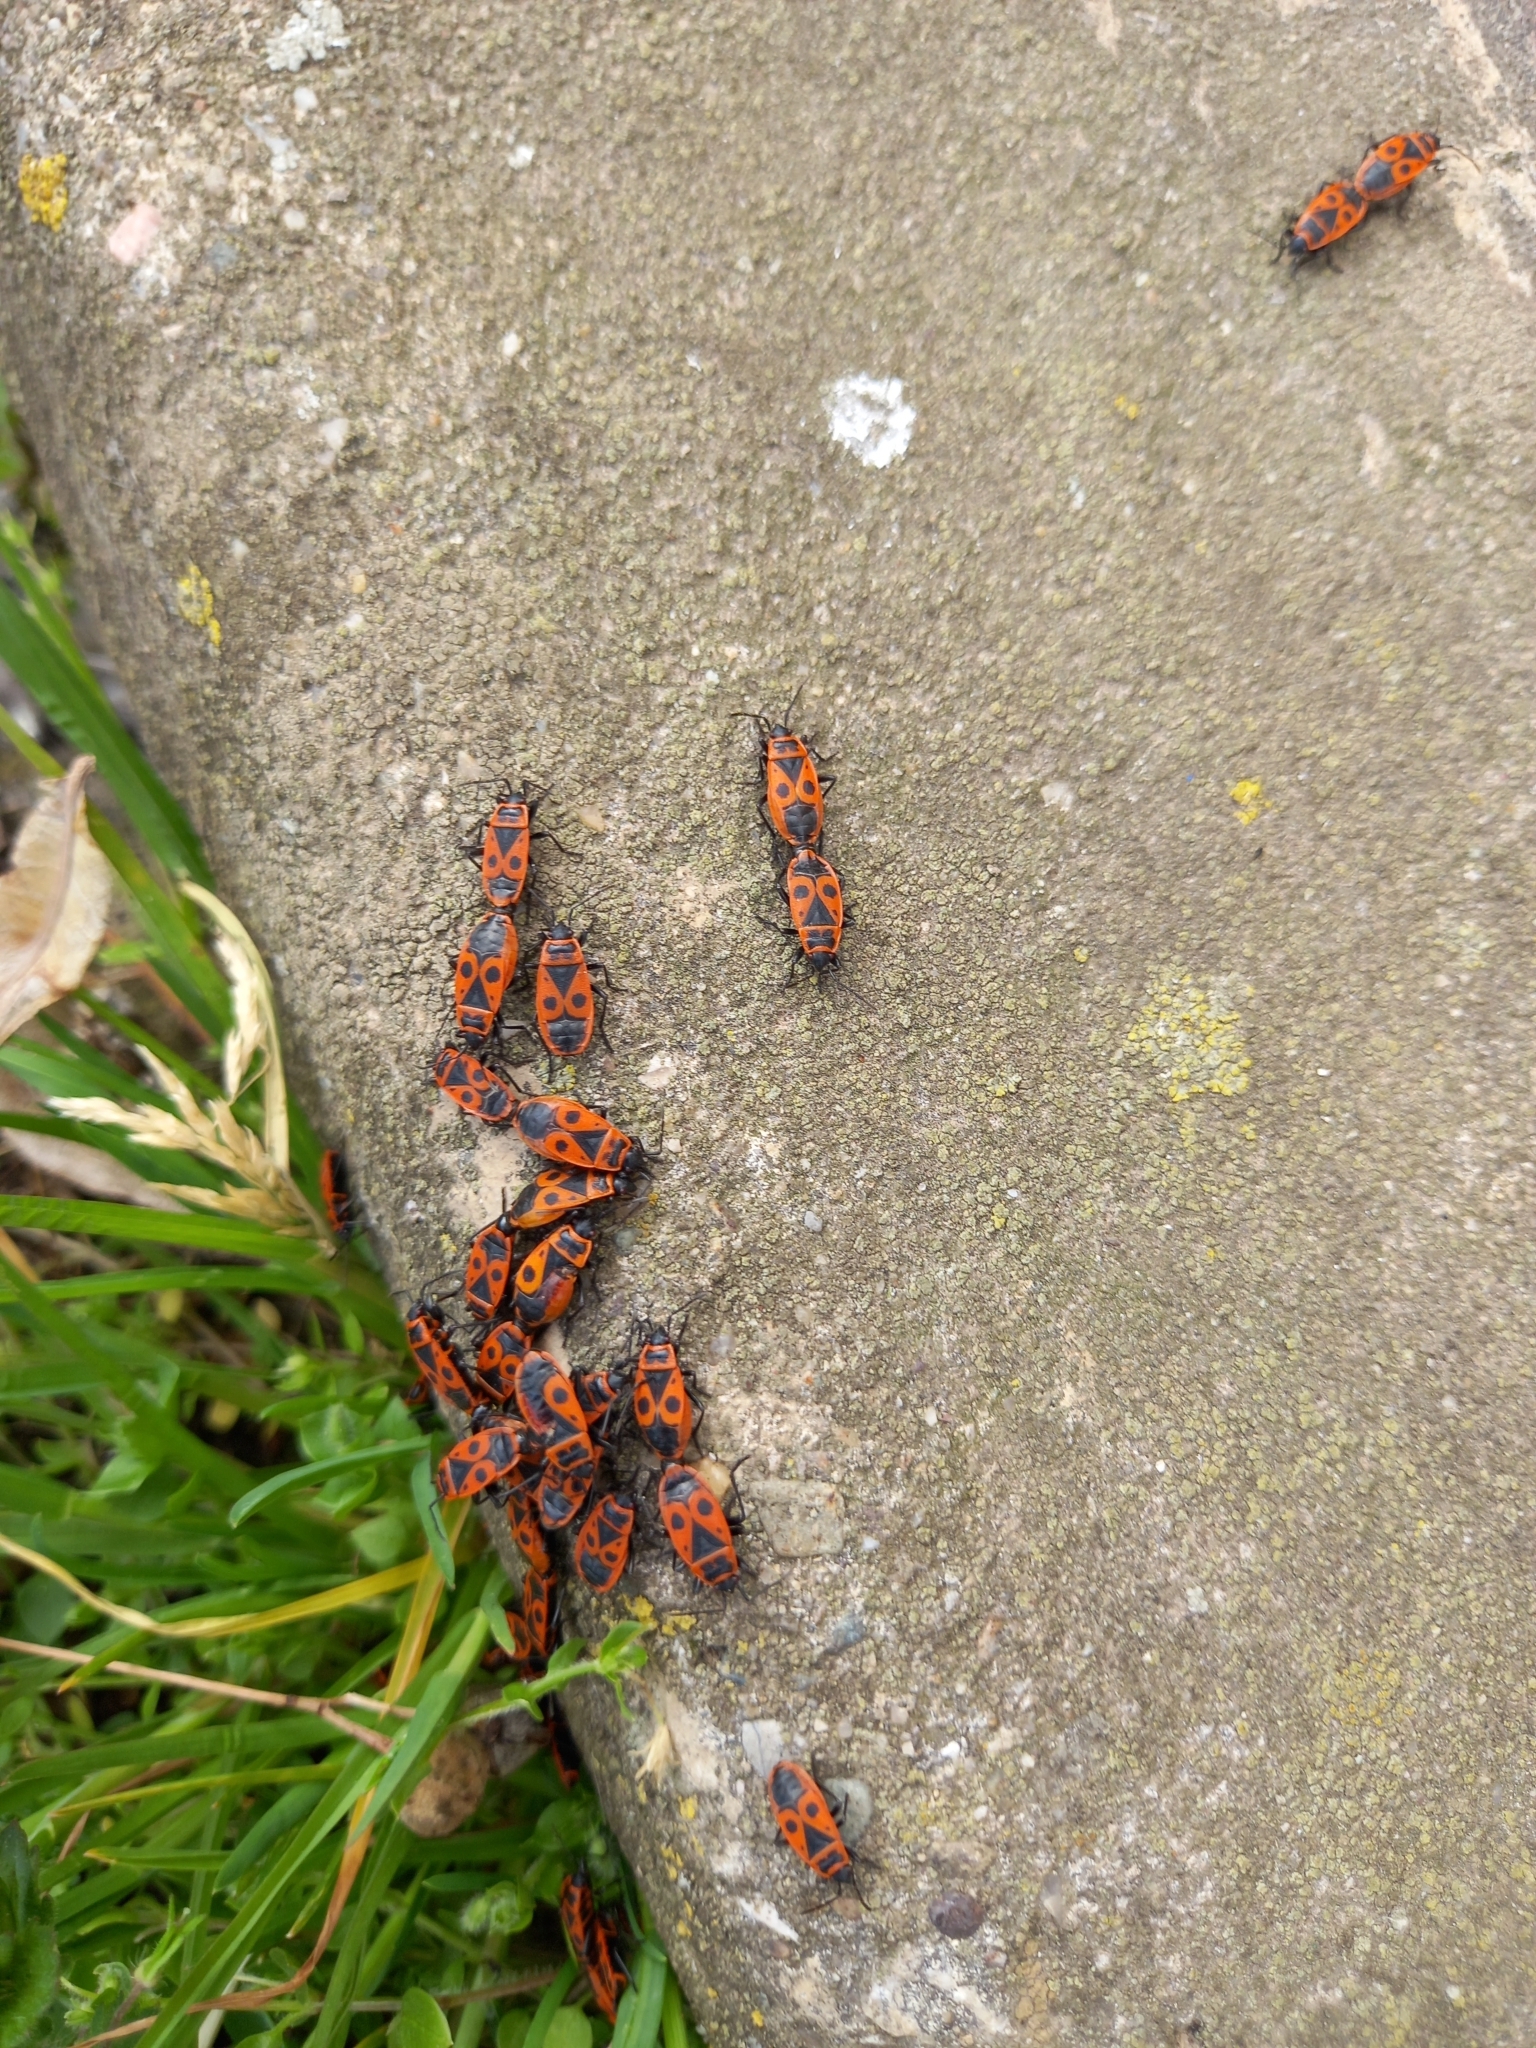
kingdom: Animalia
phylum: Arthropoda
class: Insecta
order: Hemiptera
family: Pyrrhocoridae
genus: Pyrrhocoris
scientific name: Pyrrhocoris apterus
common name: Firebug
